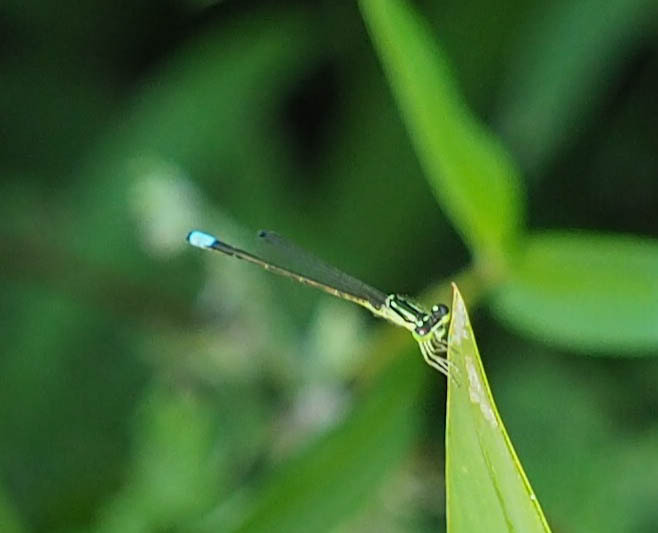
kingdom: Animalia
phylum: Arthropoda
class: Insecta
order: Odonata
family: Coenagrionidae
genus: Ischnura
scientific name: Ischnura verticalis
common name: Eastern forktail
